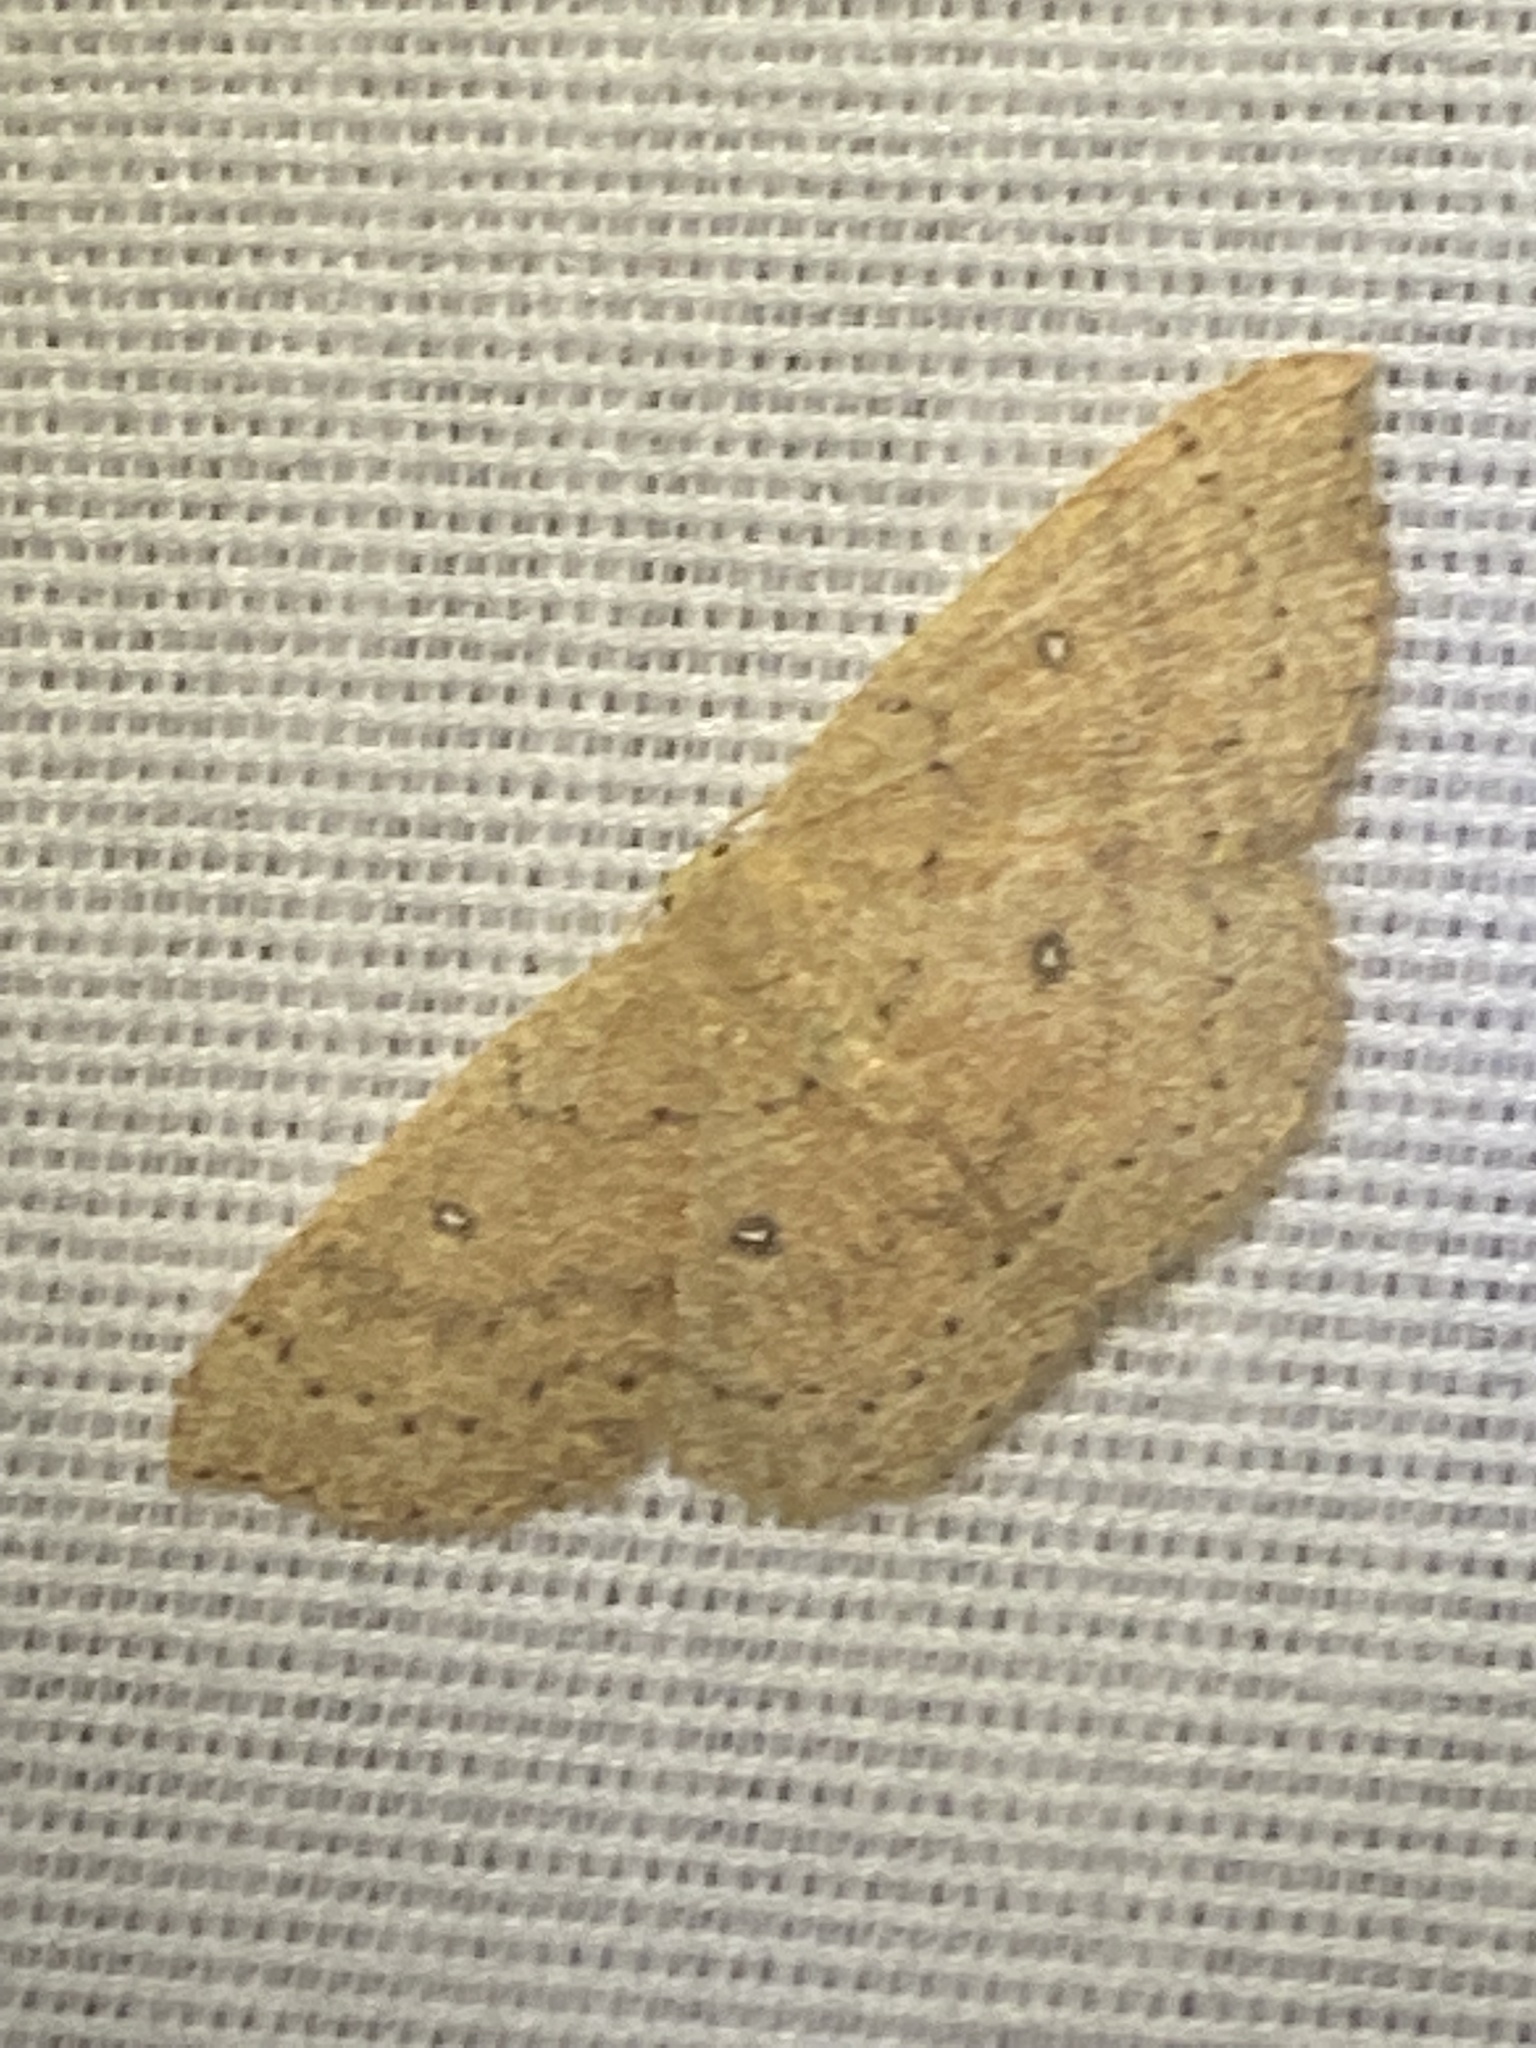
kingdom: Animalia
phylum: Arthropoda
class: Insecta
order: Lepidoptera
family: Geometridae
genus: Cyclophora
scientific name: Cyclophora packardi
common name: Packard's wave
